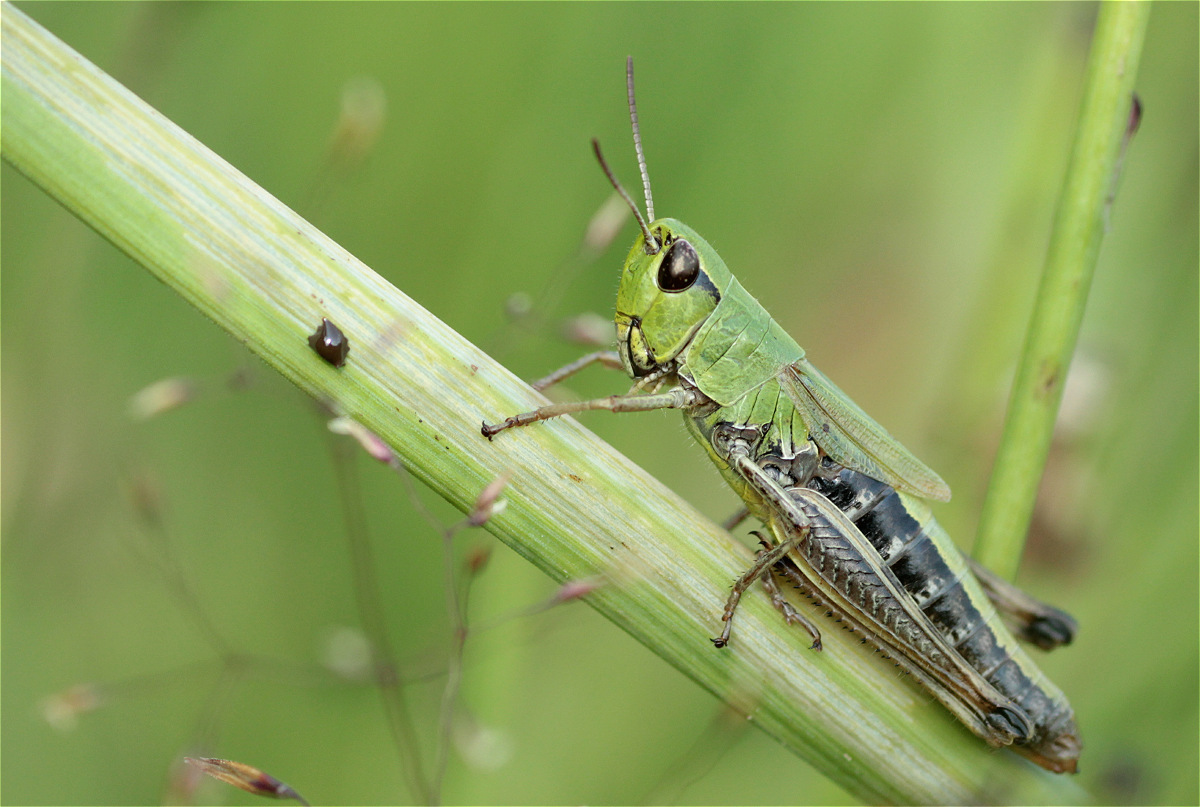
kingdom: Animalia
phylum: Arthropoda
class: Insecta
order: Orthoptera
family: Acrididae
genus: Pseudochorthippus
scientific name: Pseudochorthippus parallelus
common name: Meadow grasshopper
